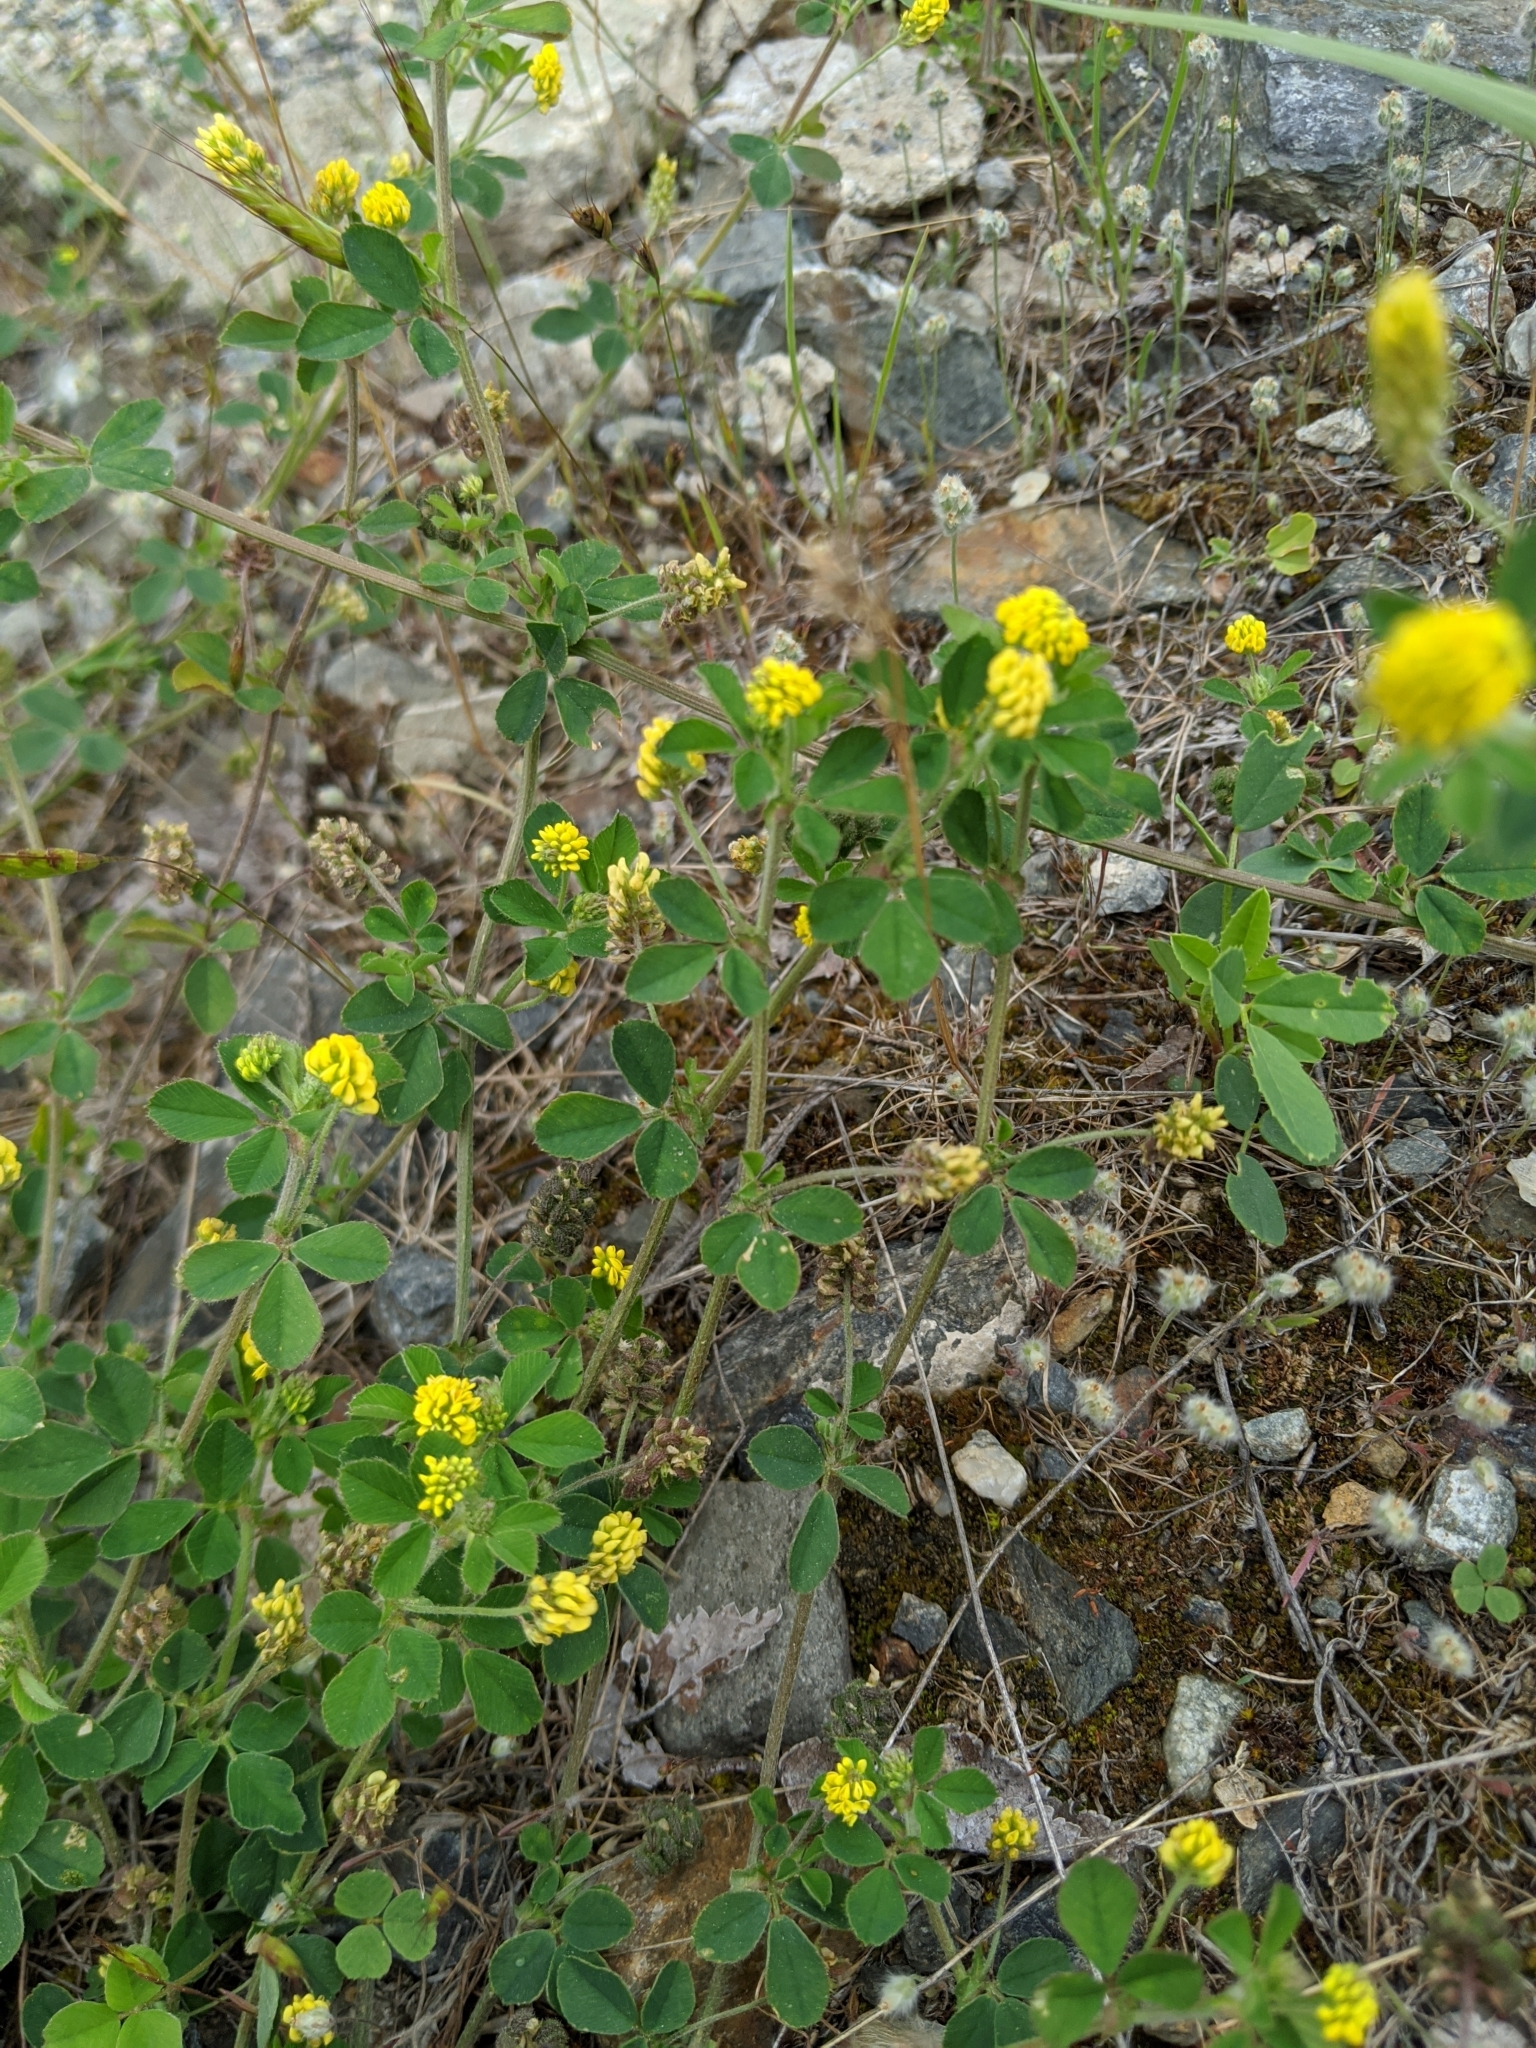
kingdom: Plantae
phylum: Tracheophyta
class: Magnoliopsida
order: Fabales
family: Fabaceae
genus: Medicago
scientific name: Medicago lupulina
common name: Black medick
